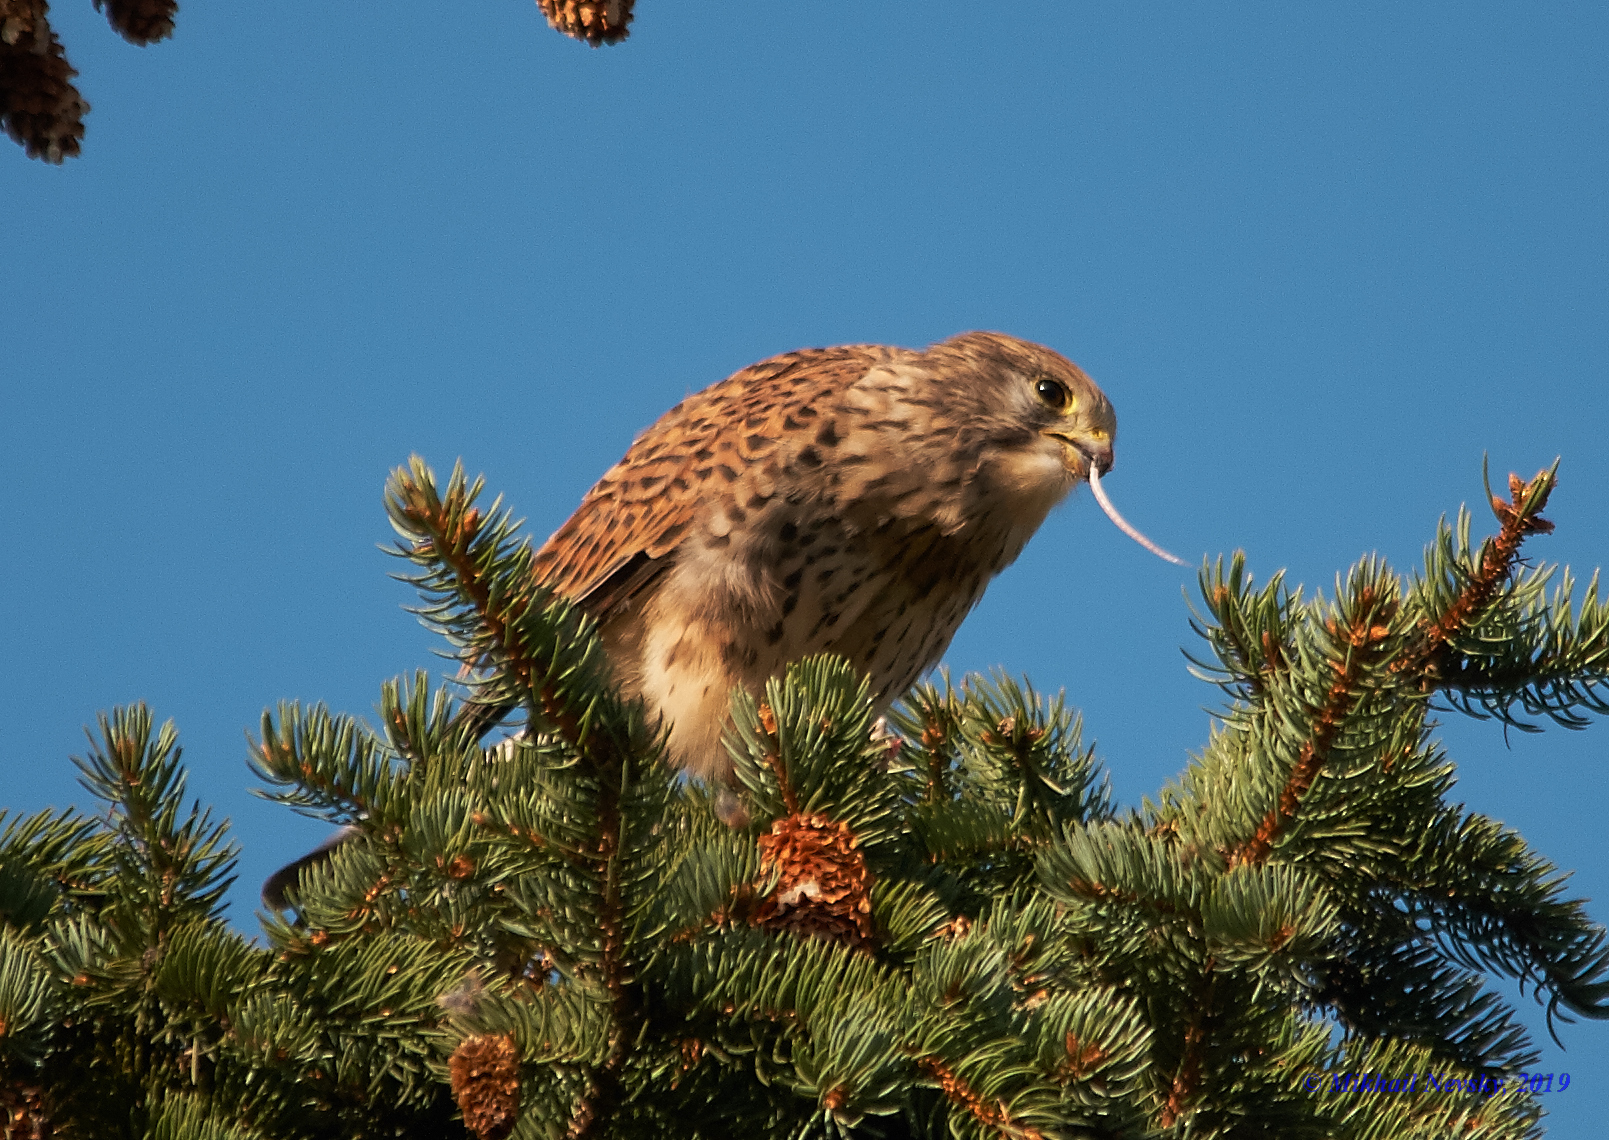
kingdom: Animalia
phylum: Chordata
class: Aves
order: Falconiformes
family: Falconidae
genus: Falco
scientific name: Falco tinnunculus
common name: Common kestrel
